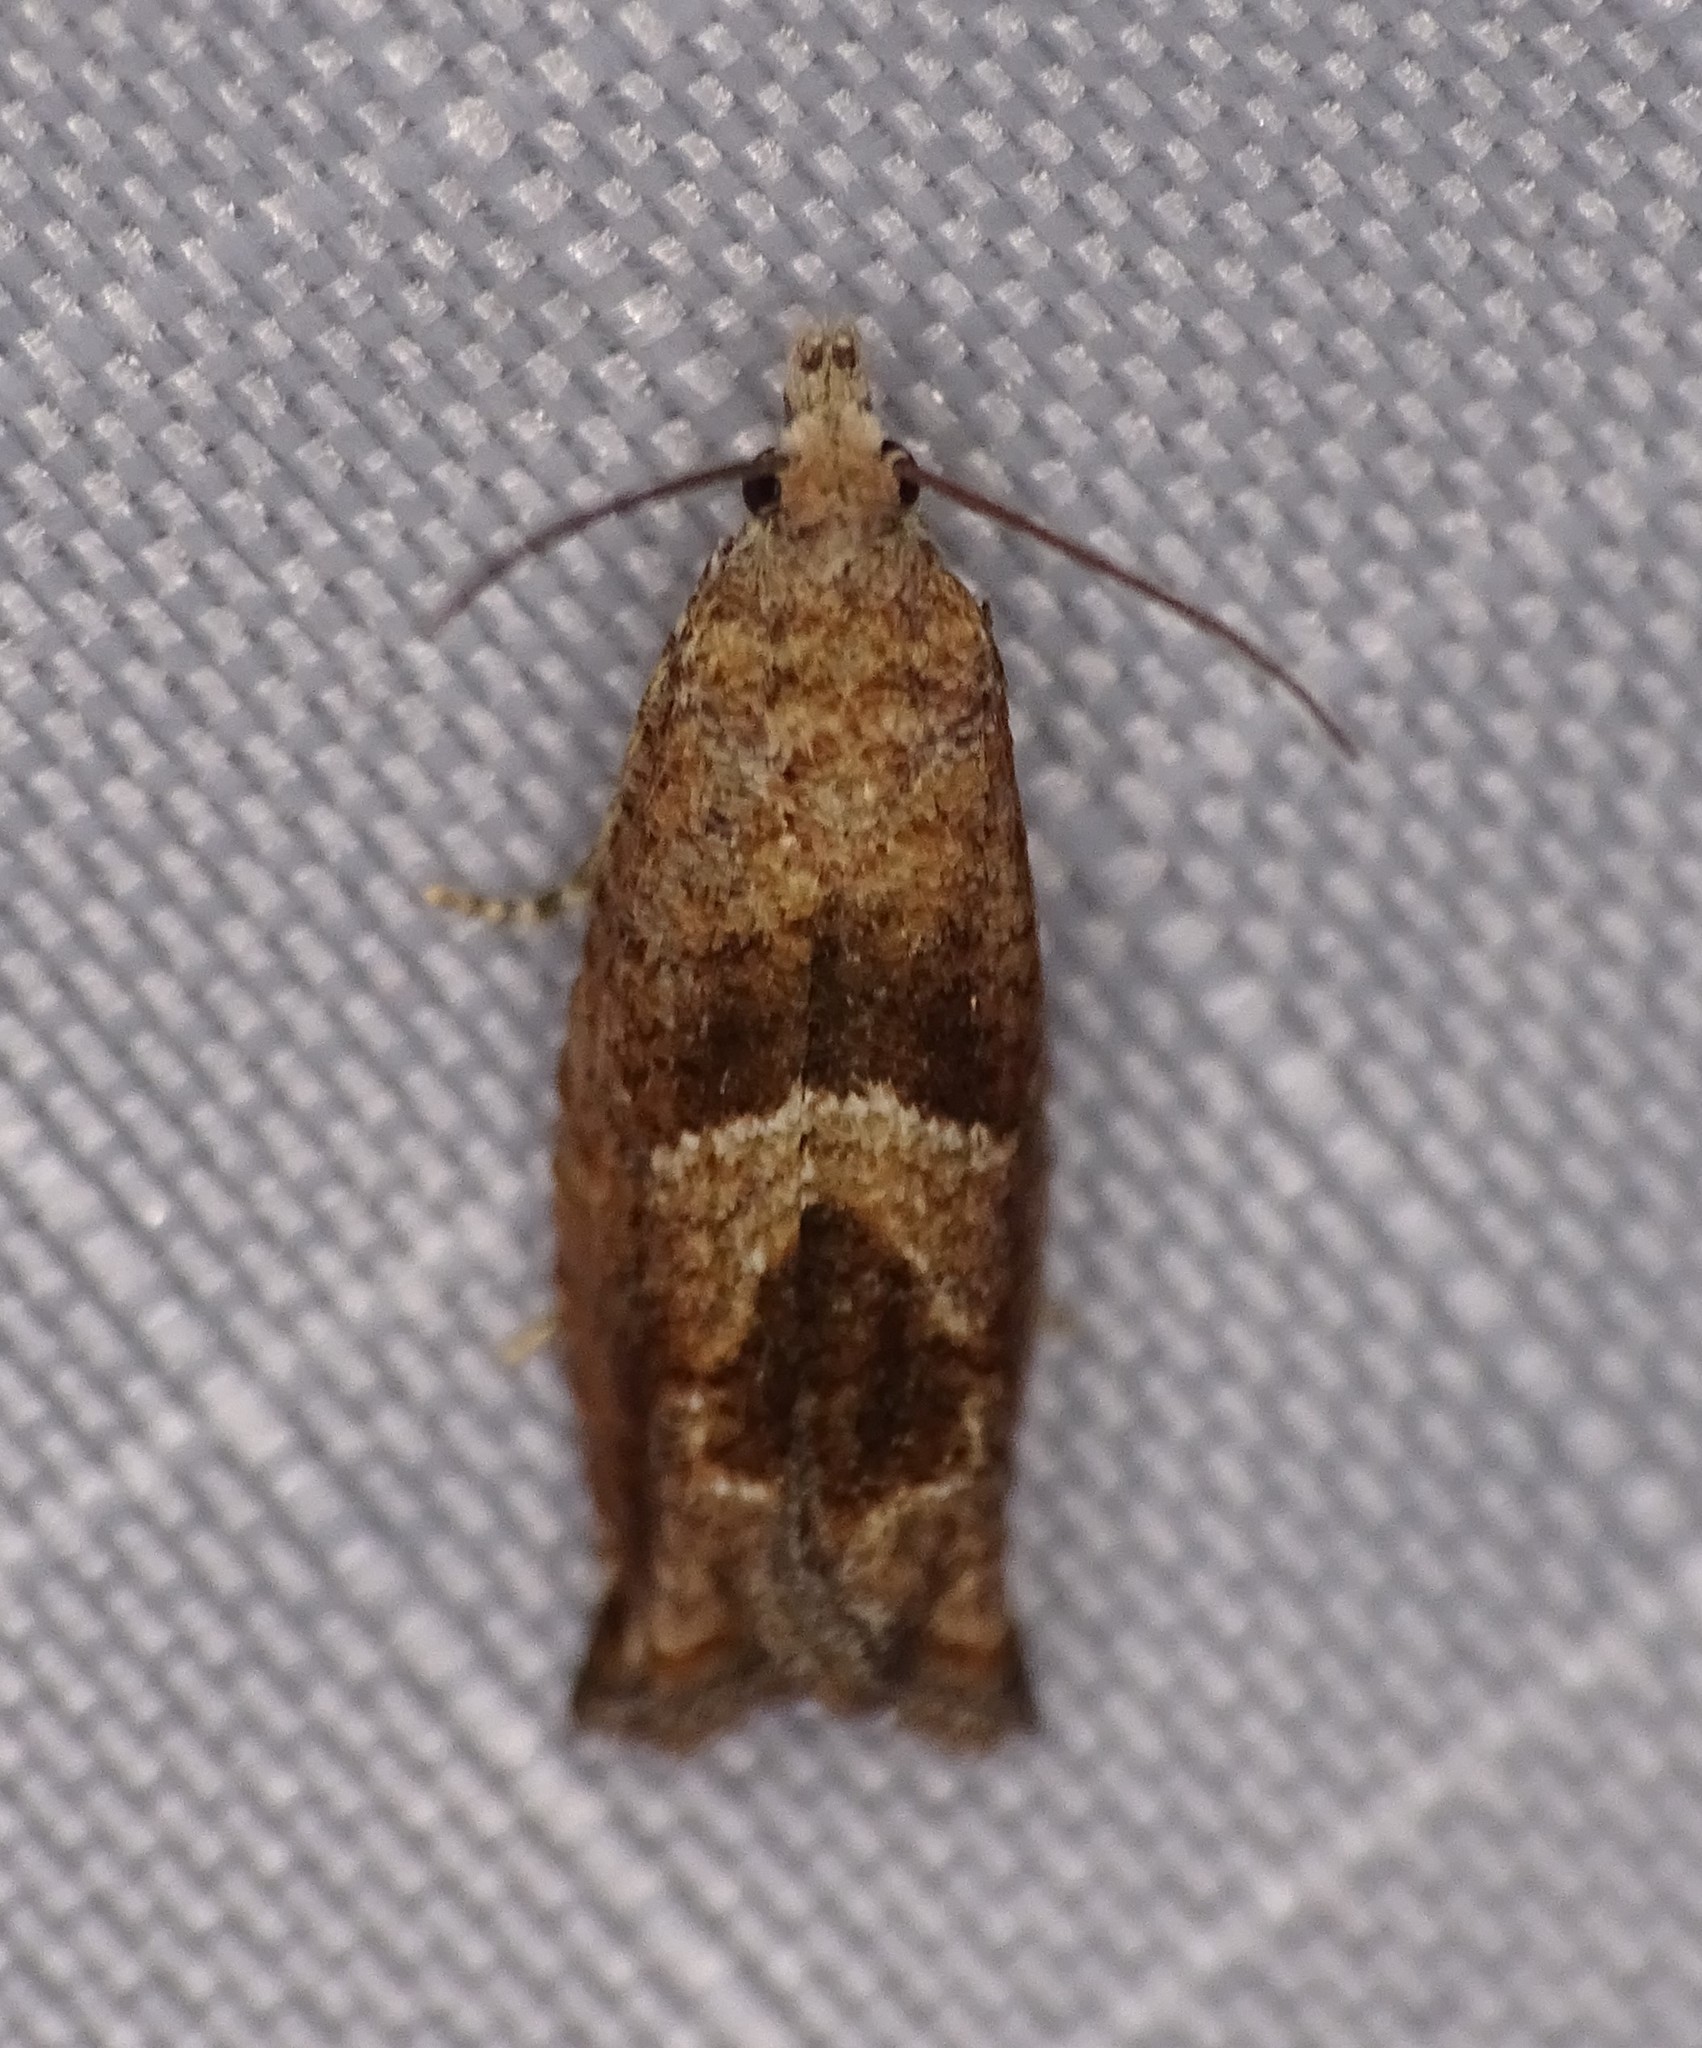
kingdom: Animalia
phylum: Arthropoda
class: Insecta
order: Lepidoptera
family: Tortricidae
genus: Sonia
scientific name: Sonia canadana
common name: Canadian sonia moth
